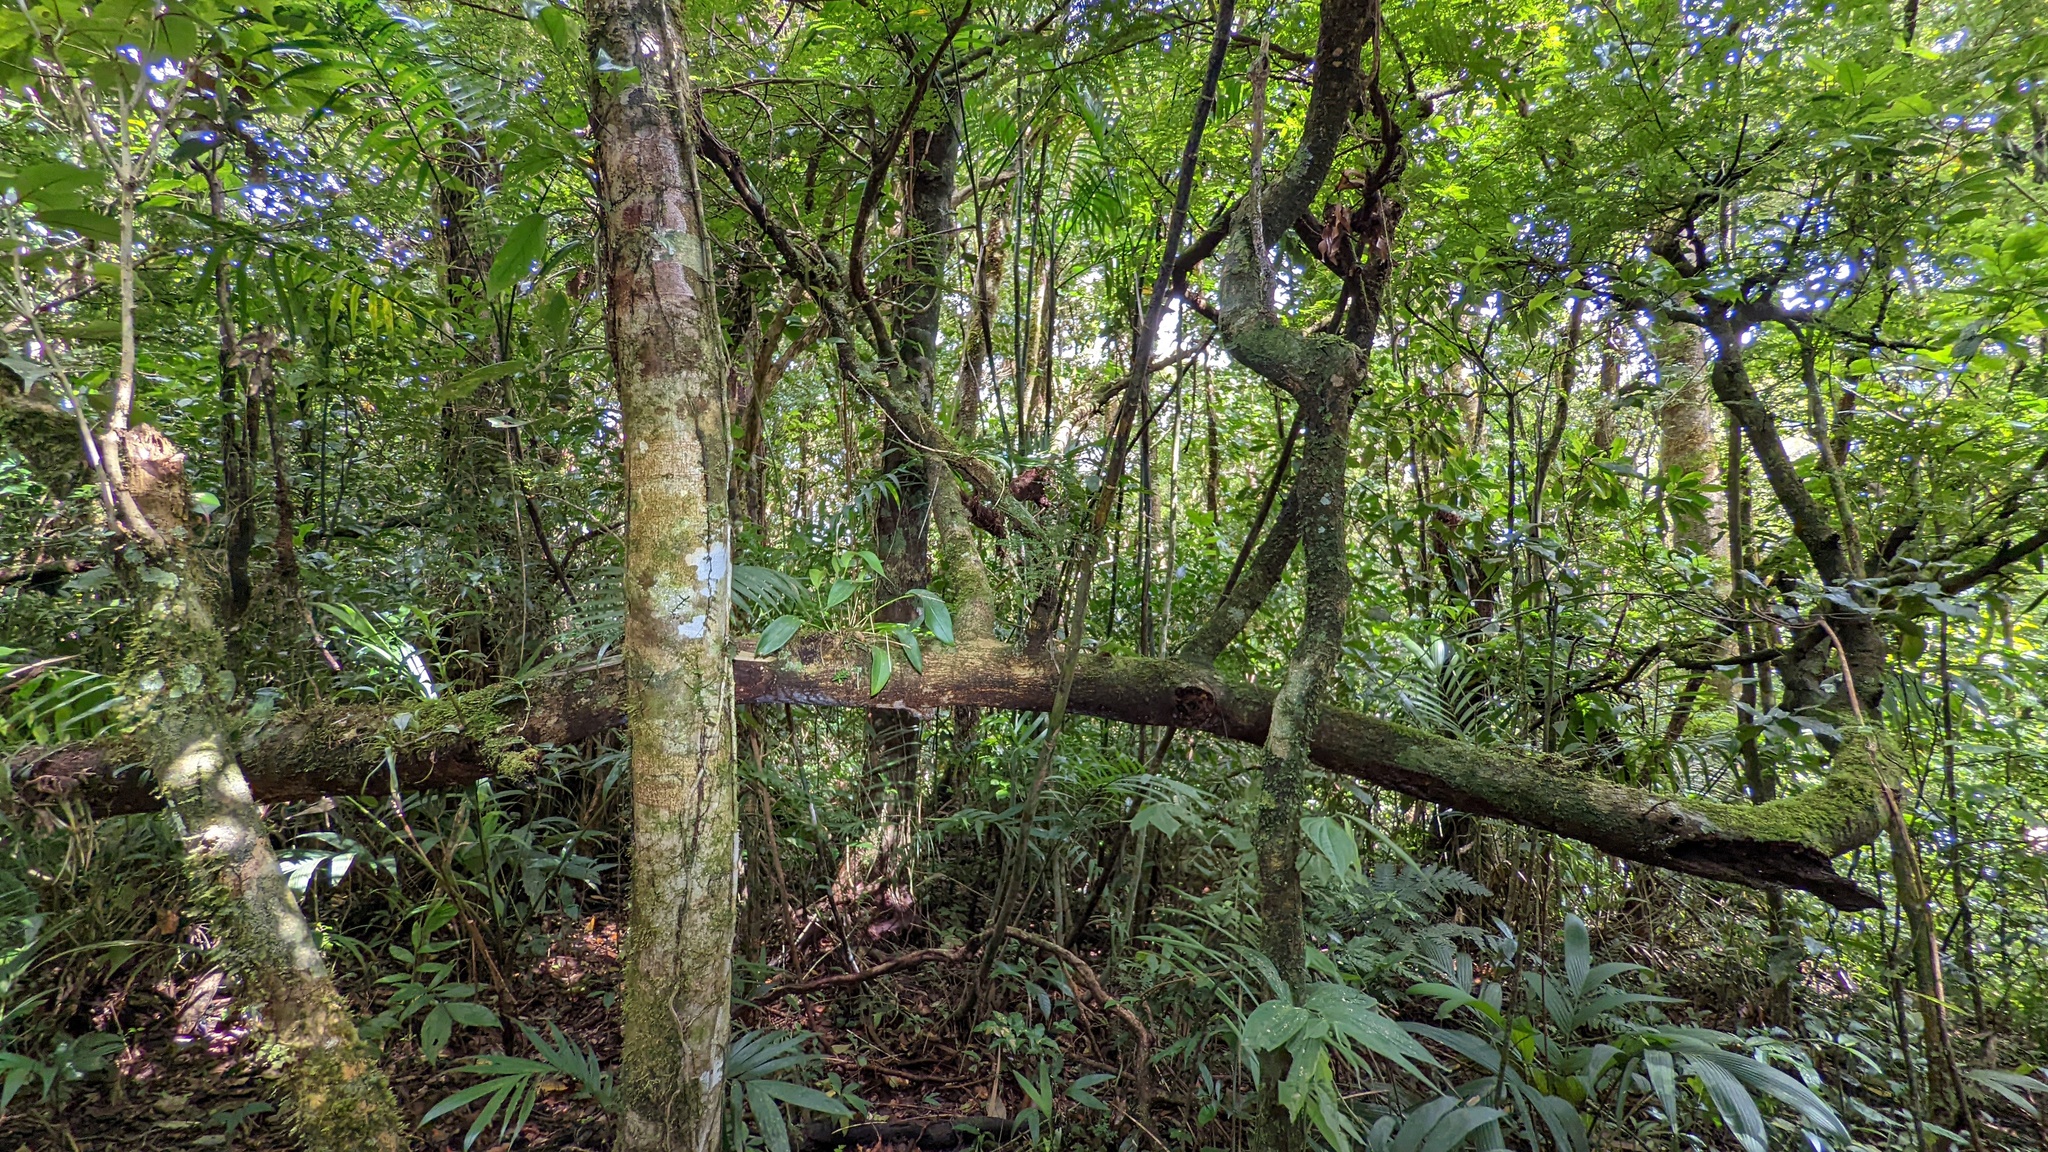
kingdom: Plantae
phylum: Tracheophyta
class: Magnoliopsida
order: Fabales
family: Fabaceae
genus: Cojoba
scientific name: Cojoba costaricensis
